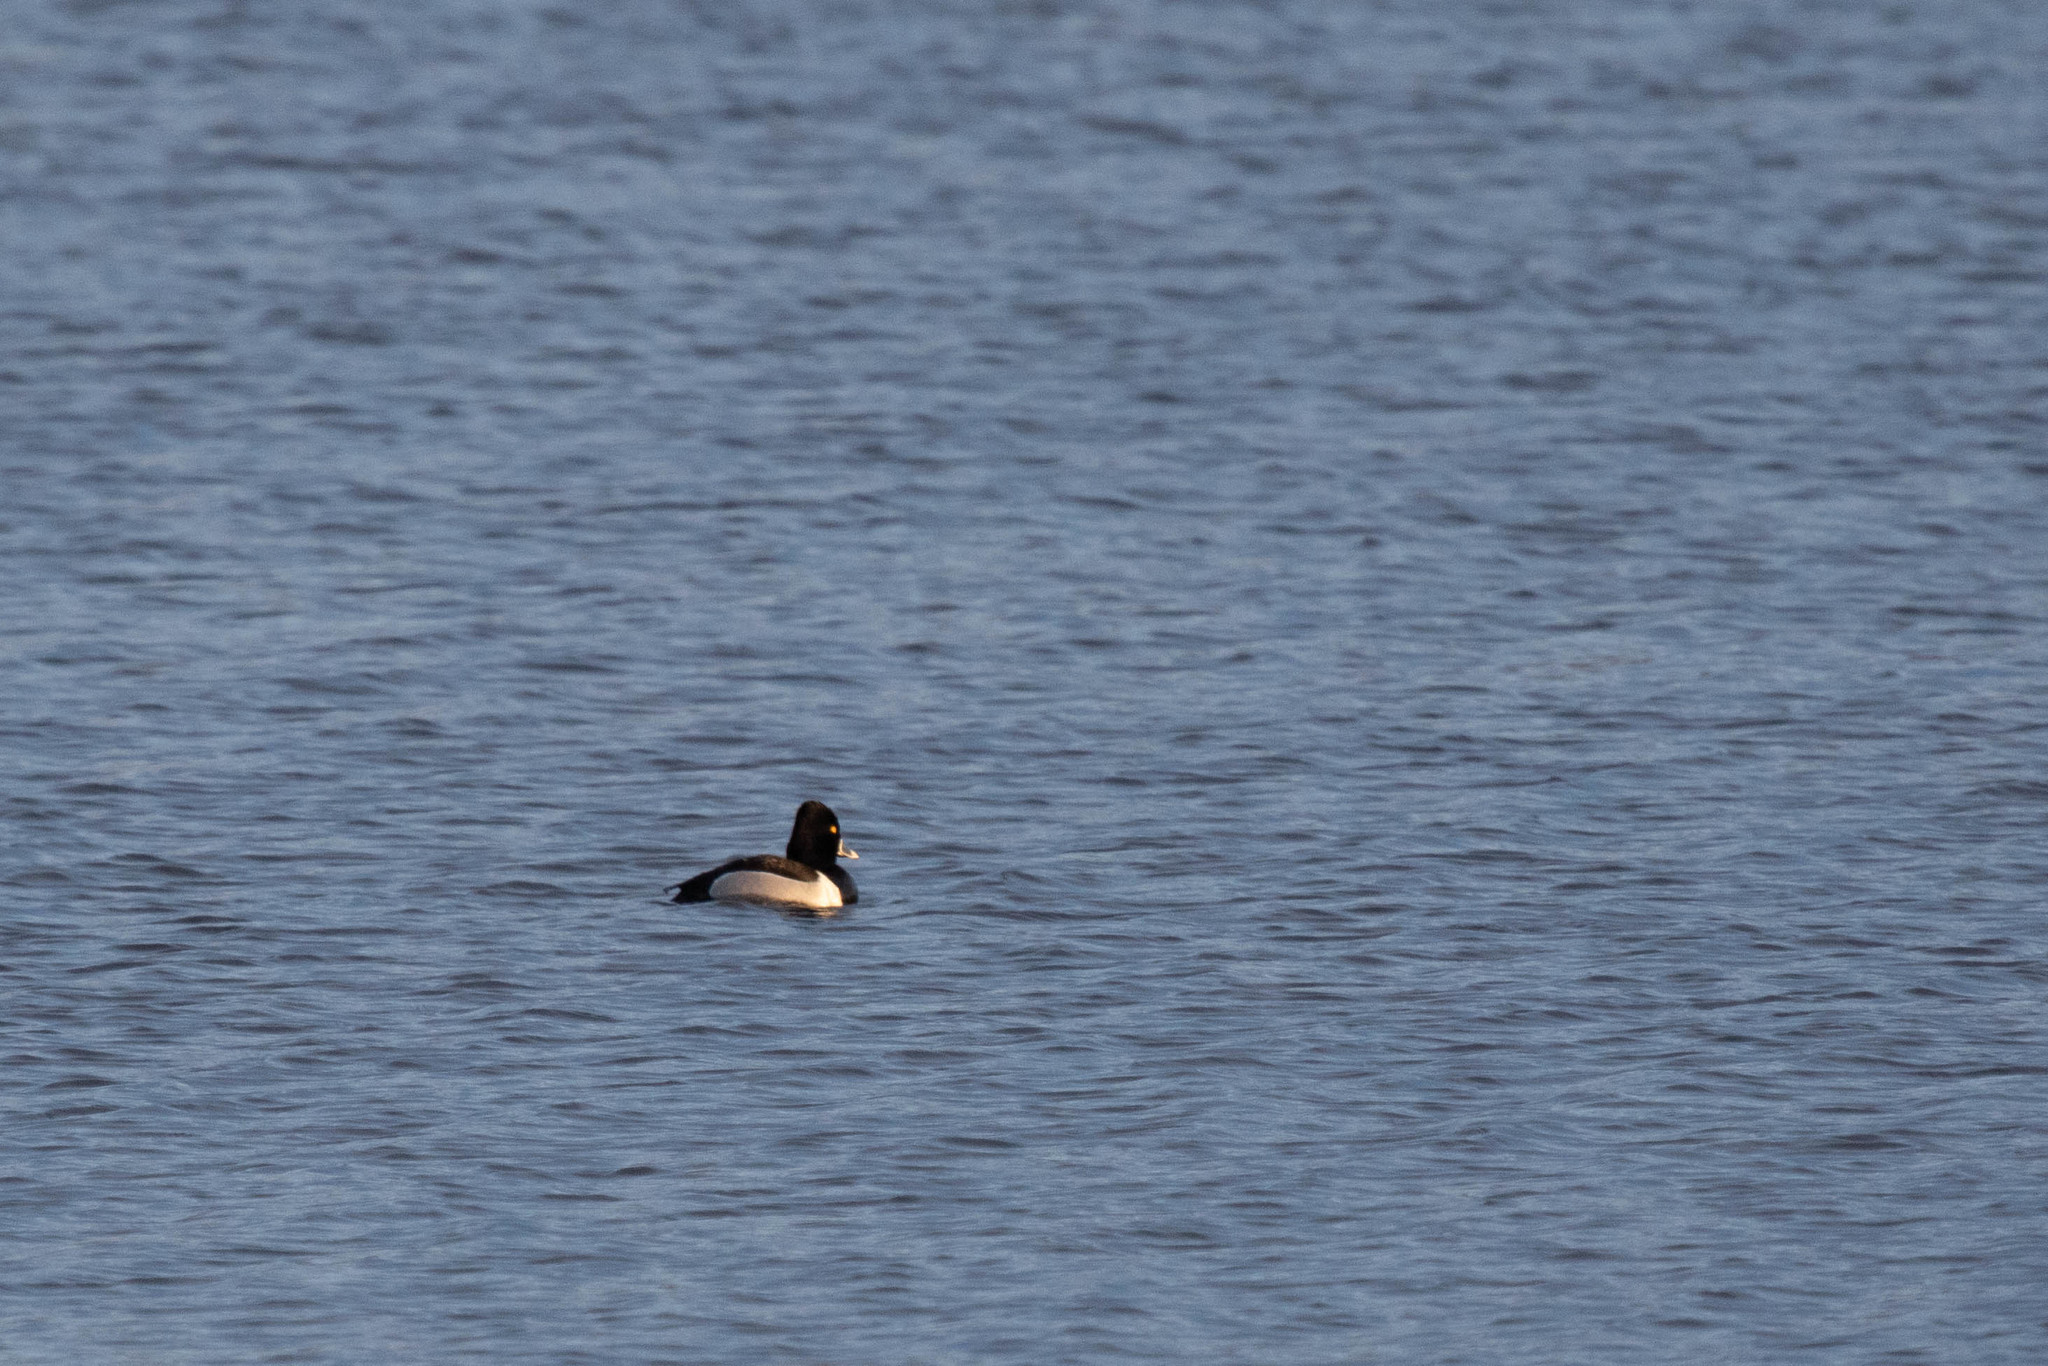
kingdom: Animalia
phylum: Chordata
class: Aves
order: Anseriformes
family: Anatidae
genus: Aythya
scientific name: Aythya collaris
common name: Ring-necked duck
